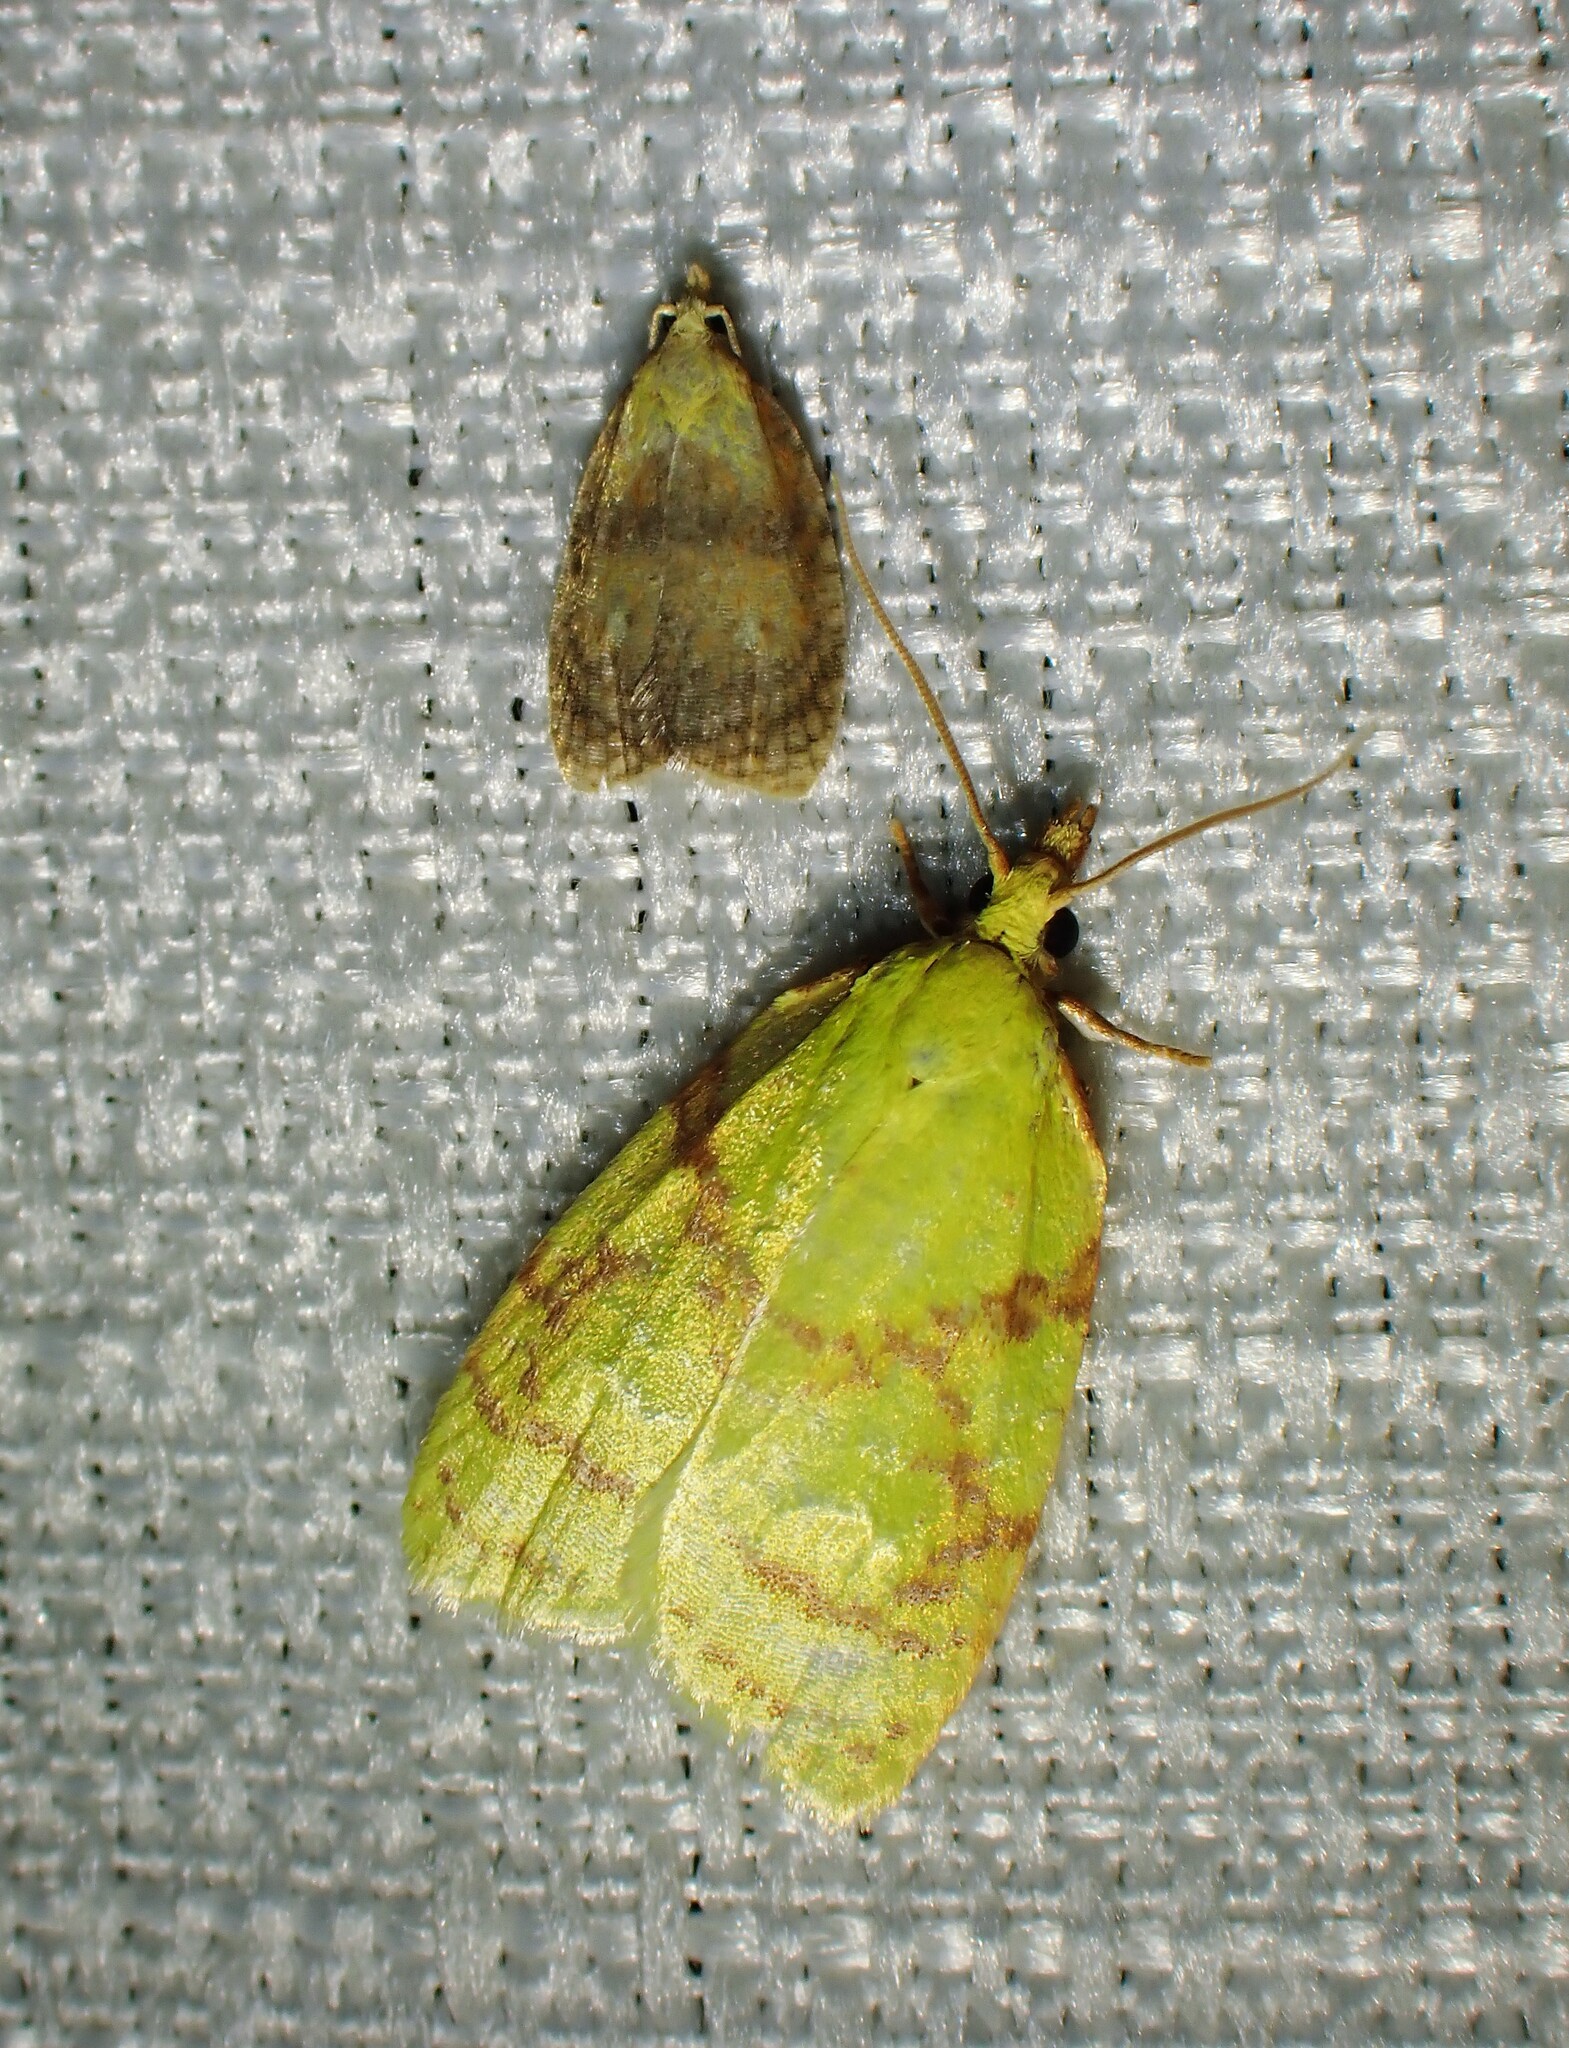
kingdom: Animalia
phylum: Arthropoda
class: Insecta
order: Lepidoptera
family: Tortricidae
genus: Acleris
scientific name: Acleris curvalana
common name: Blueberry leaftier moth
